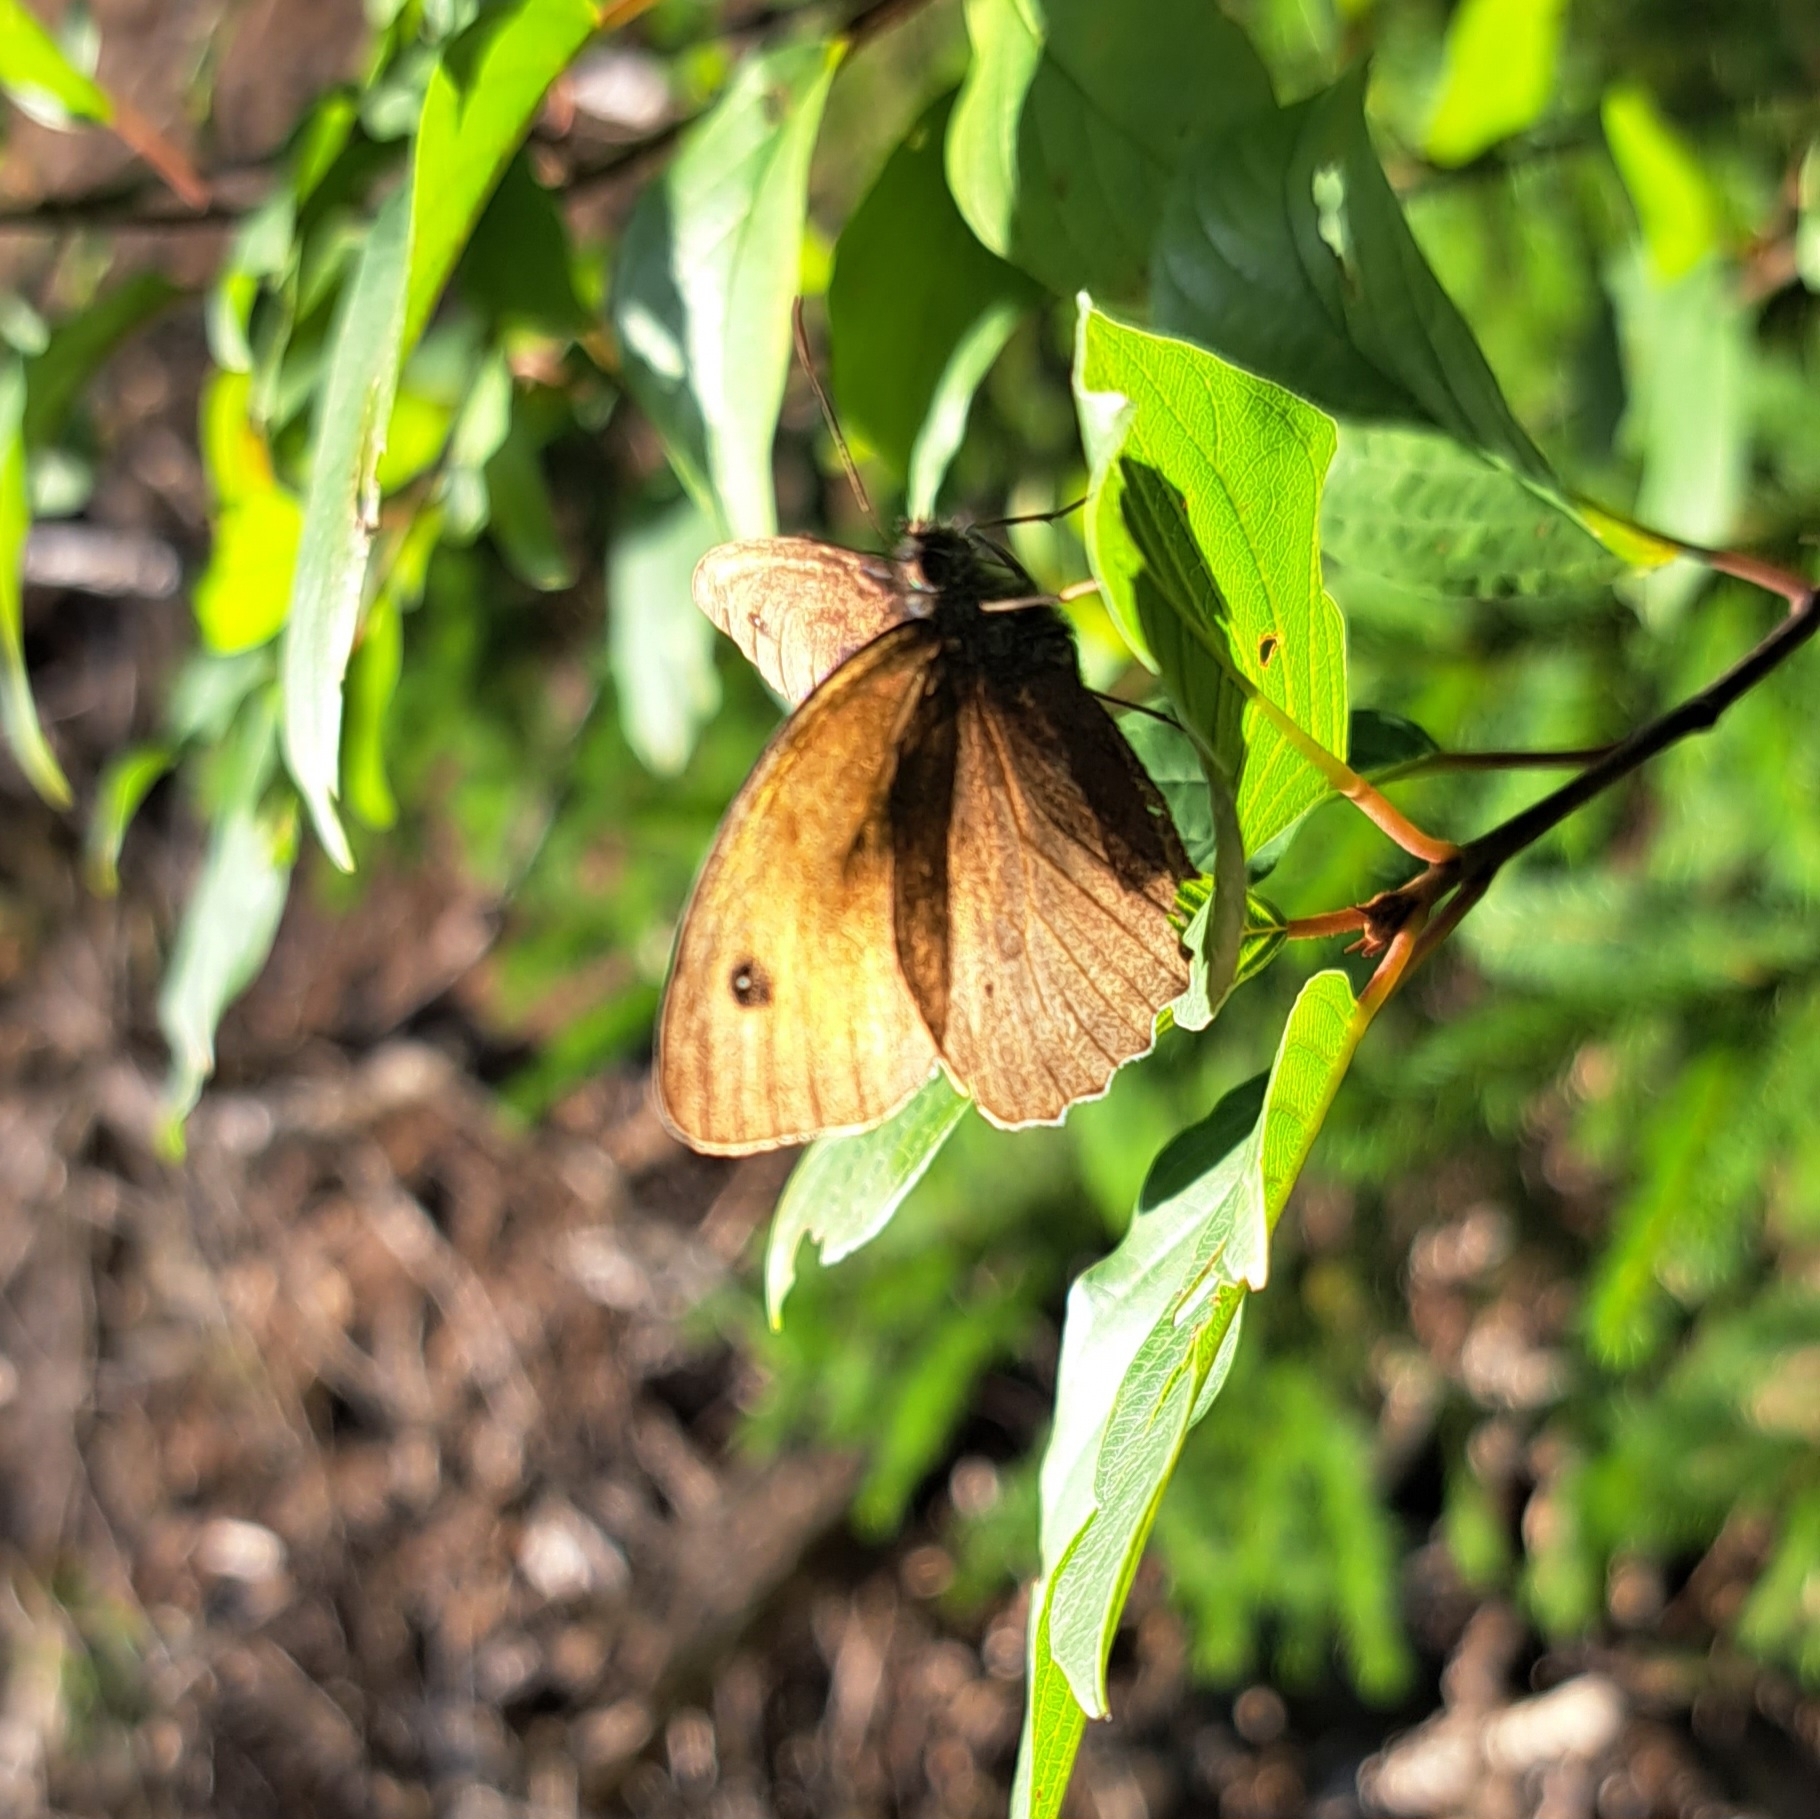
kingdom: Animalia
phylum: Arthropoda
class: Insecta
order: Lepidoptera
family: Nymphalidae
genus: Maniola
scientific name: Maniola jurtina
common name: Meadow brown
